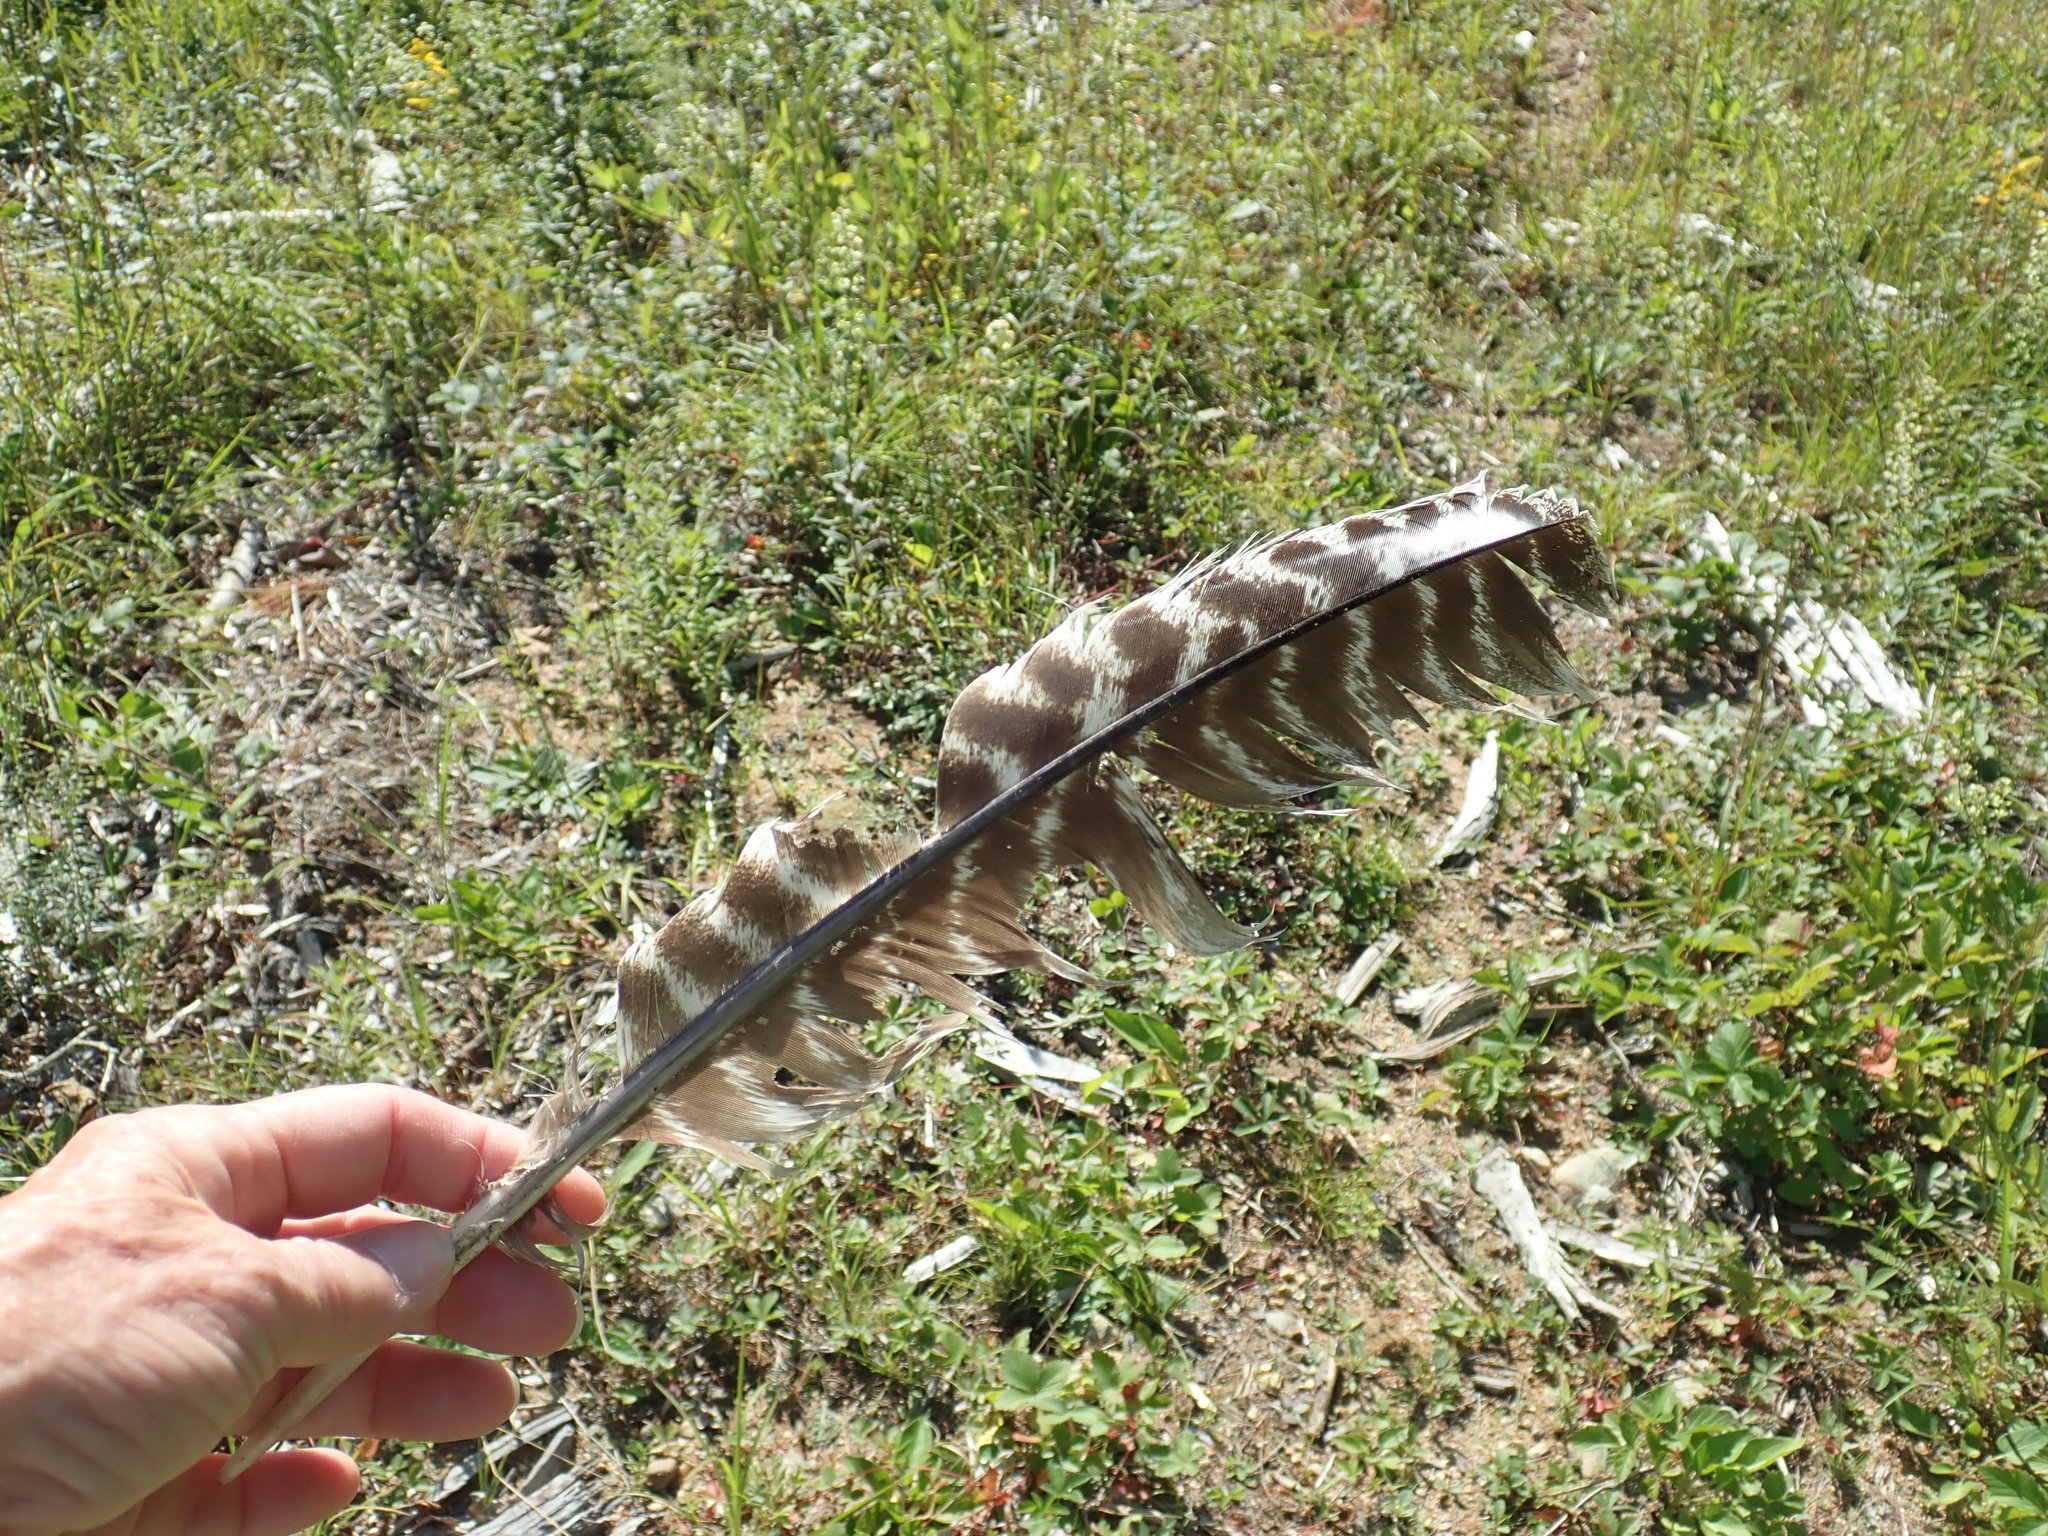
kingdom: Animalia
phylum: Chordata
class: Aves
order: Galliformes
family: Phasianidae
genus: Meleagris
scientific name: Meleagris gallopavo
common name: Wild turkey
